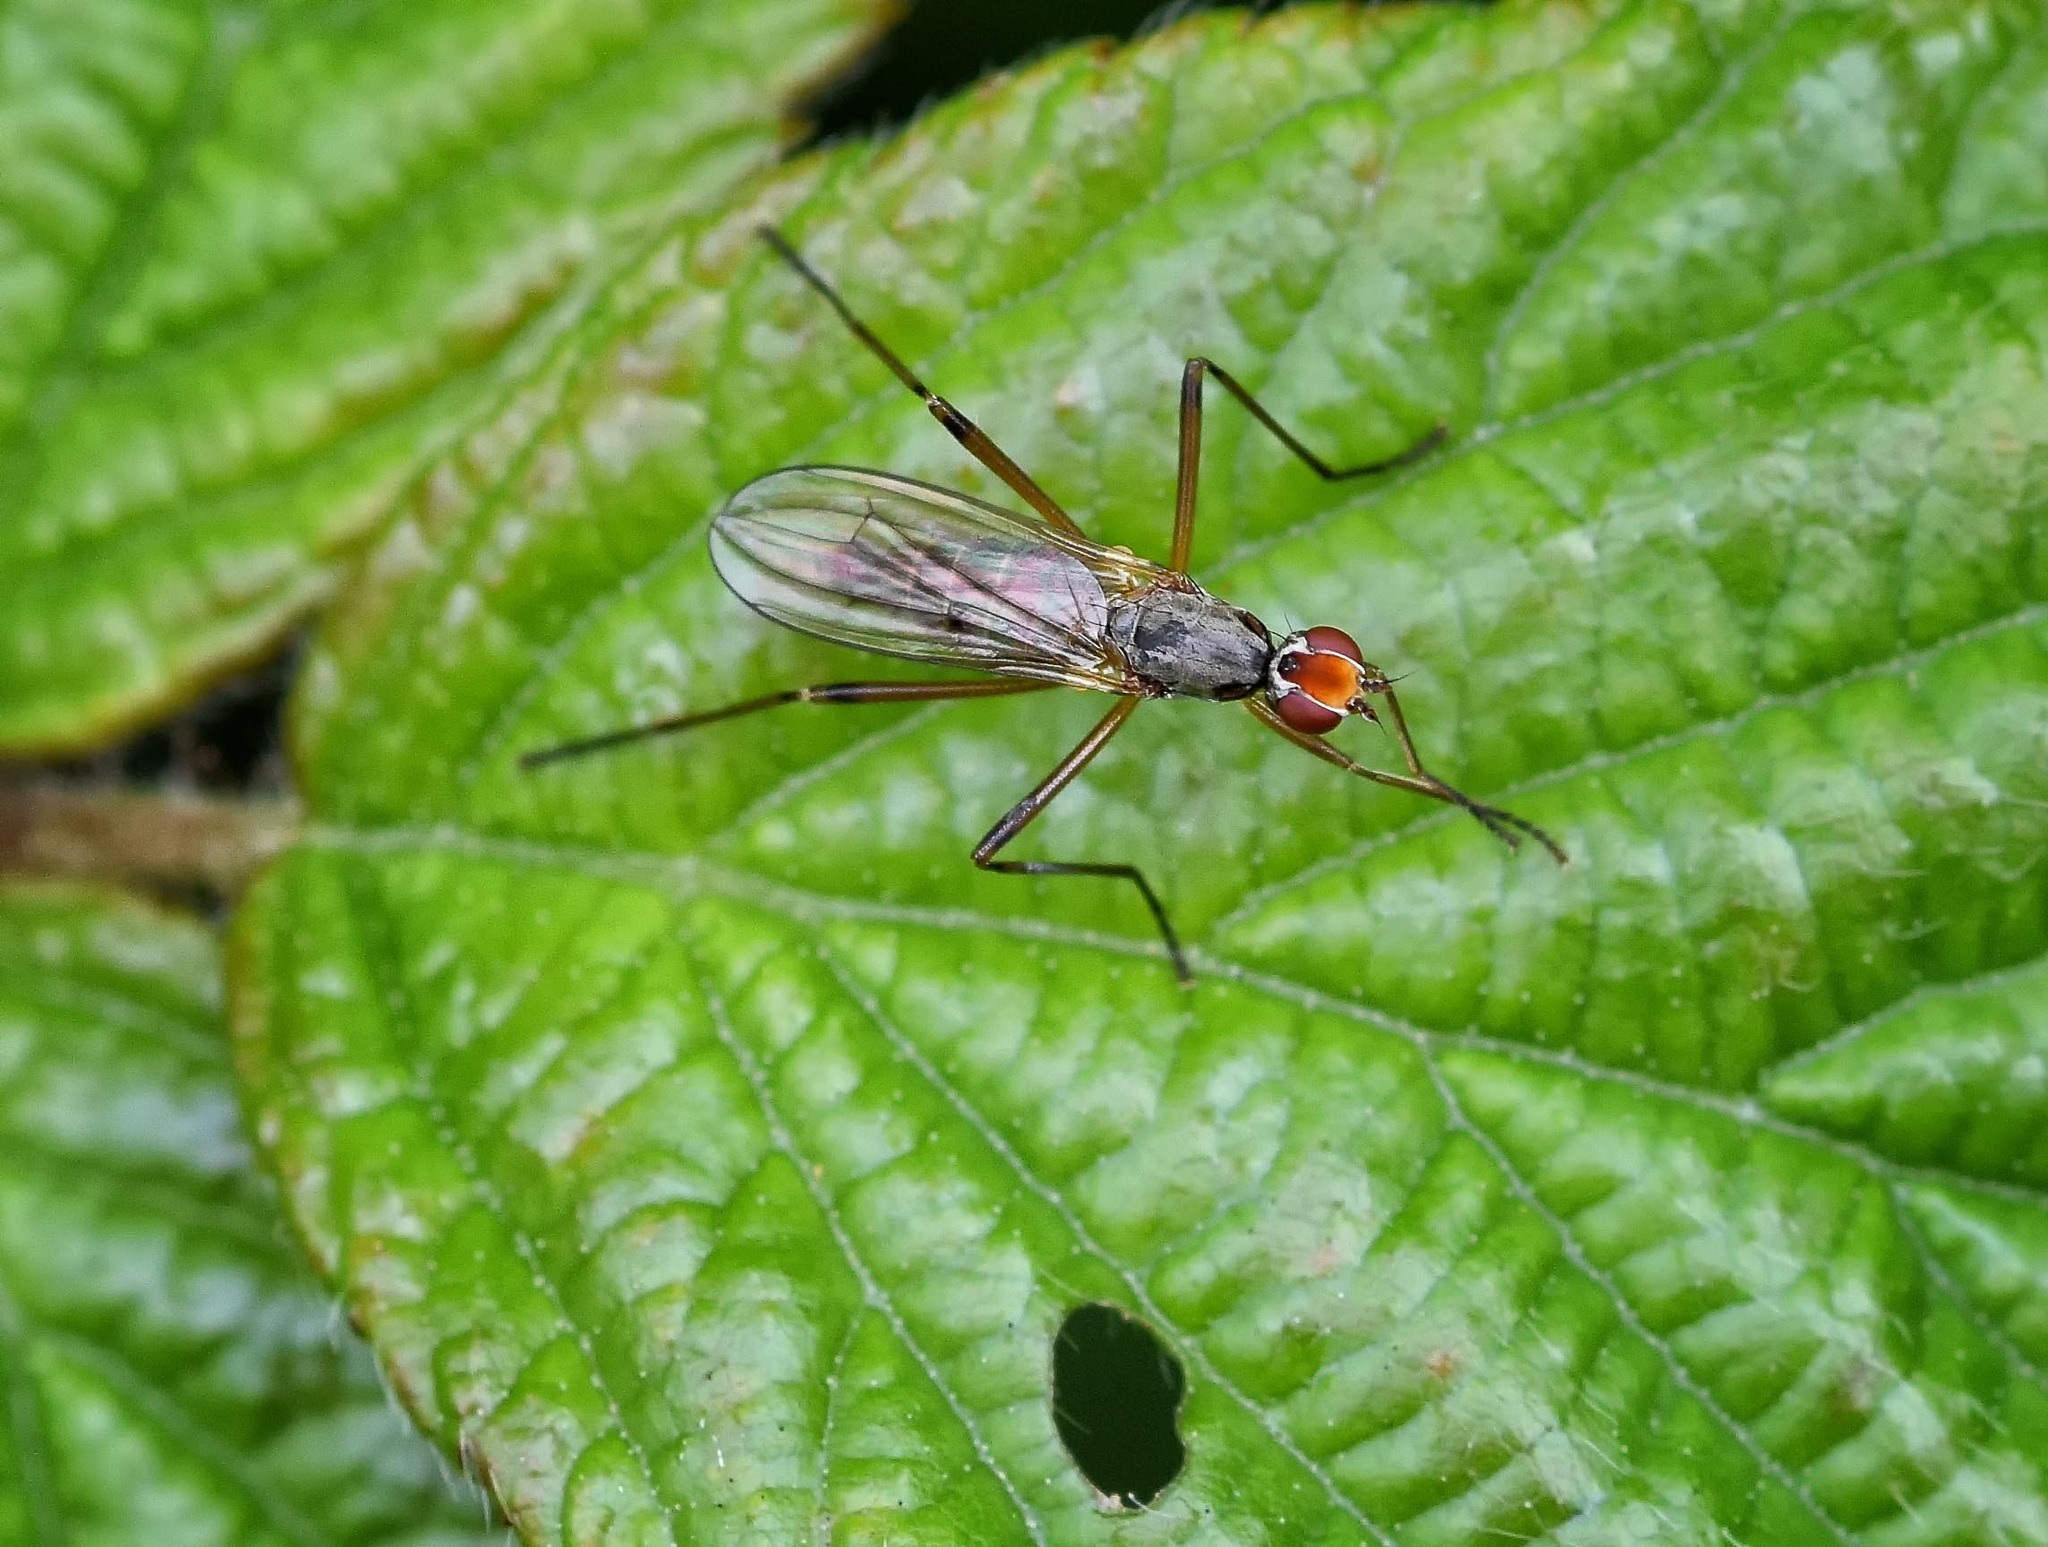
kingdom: Animalia
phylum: Arthropoda
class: Insecta
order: Diptera
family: Micropezidae
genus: Calobata
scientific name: Calobata petronella
